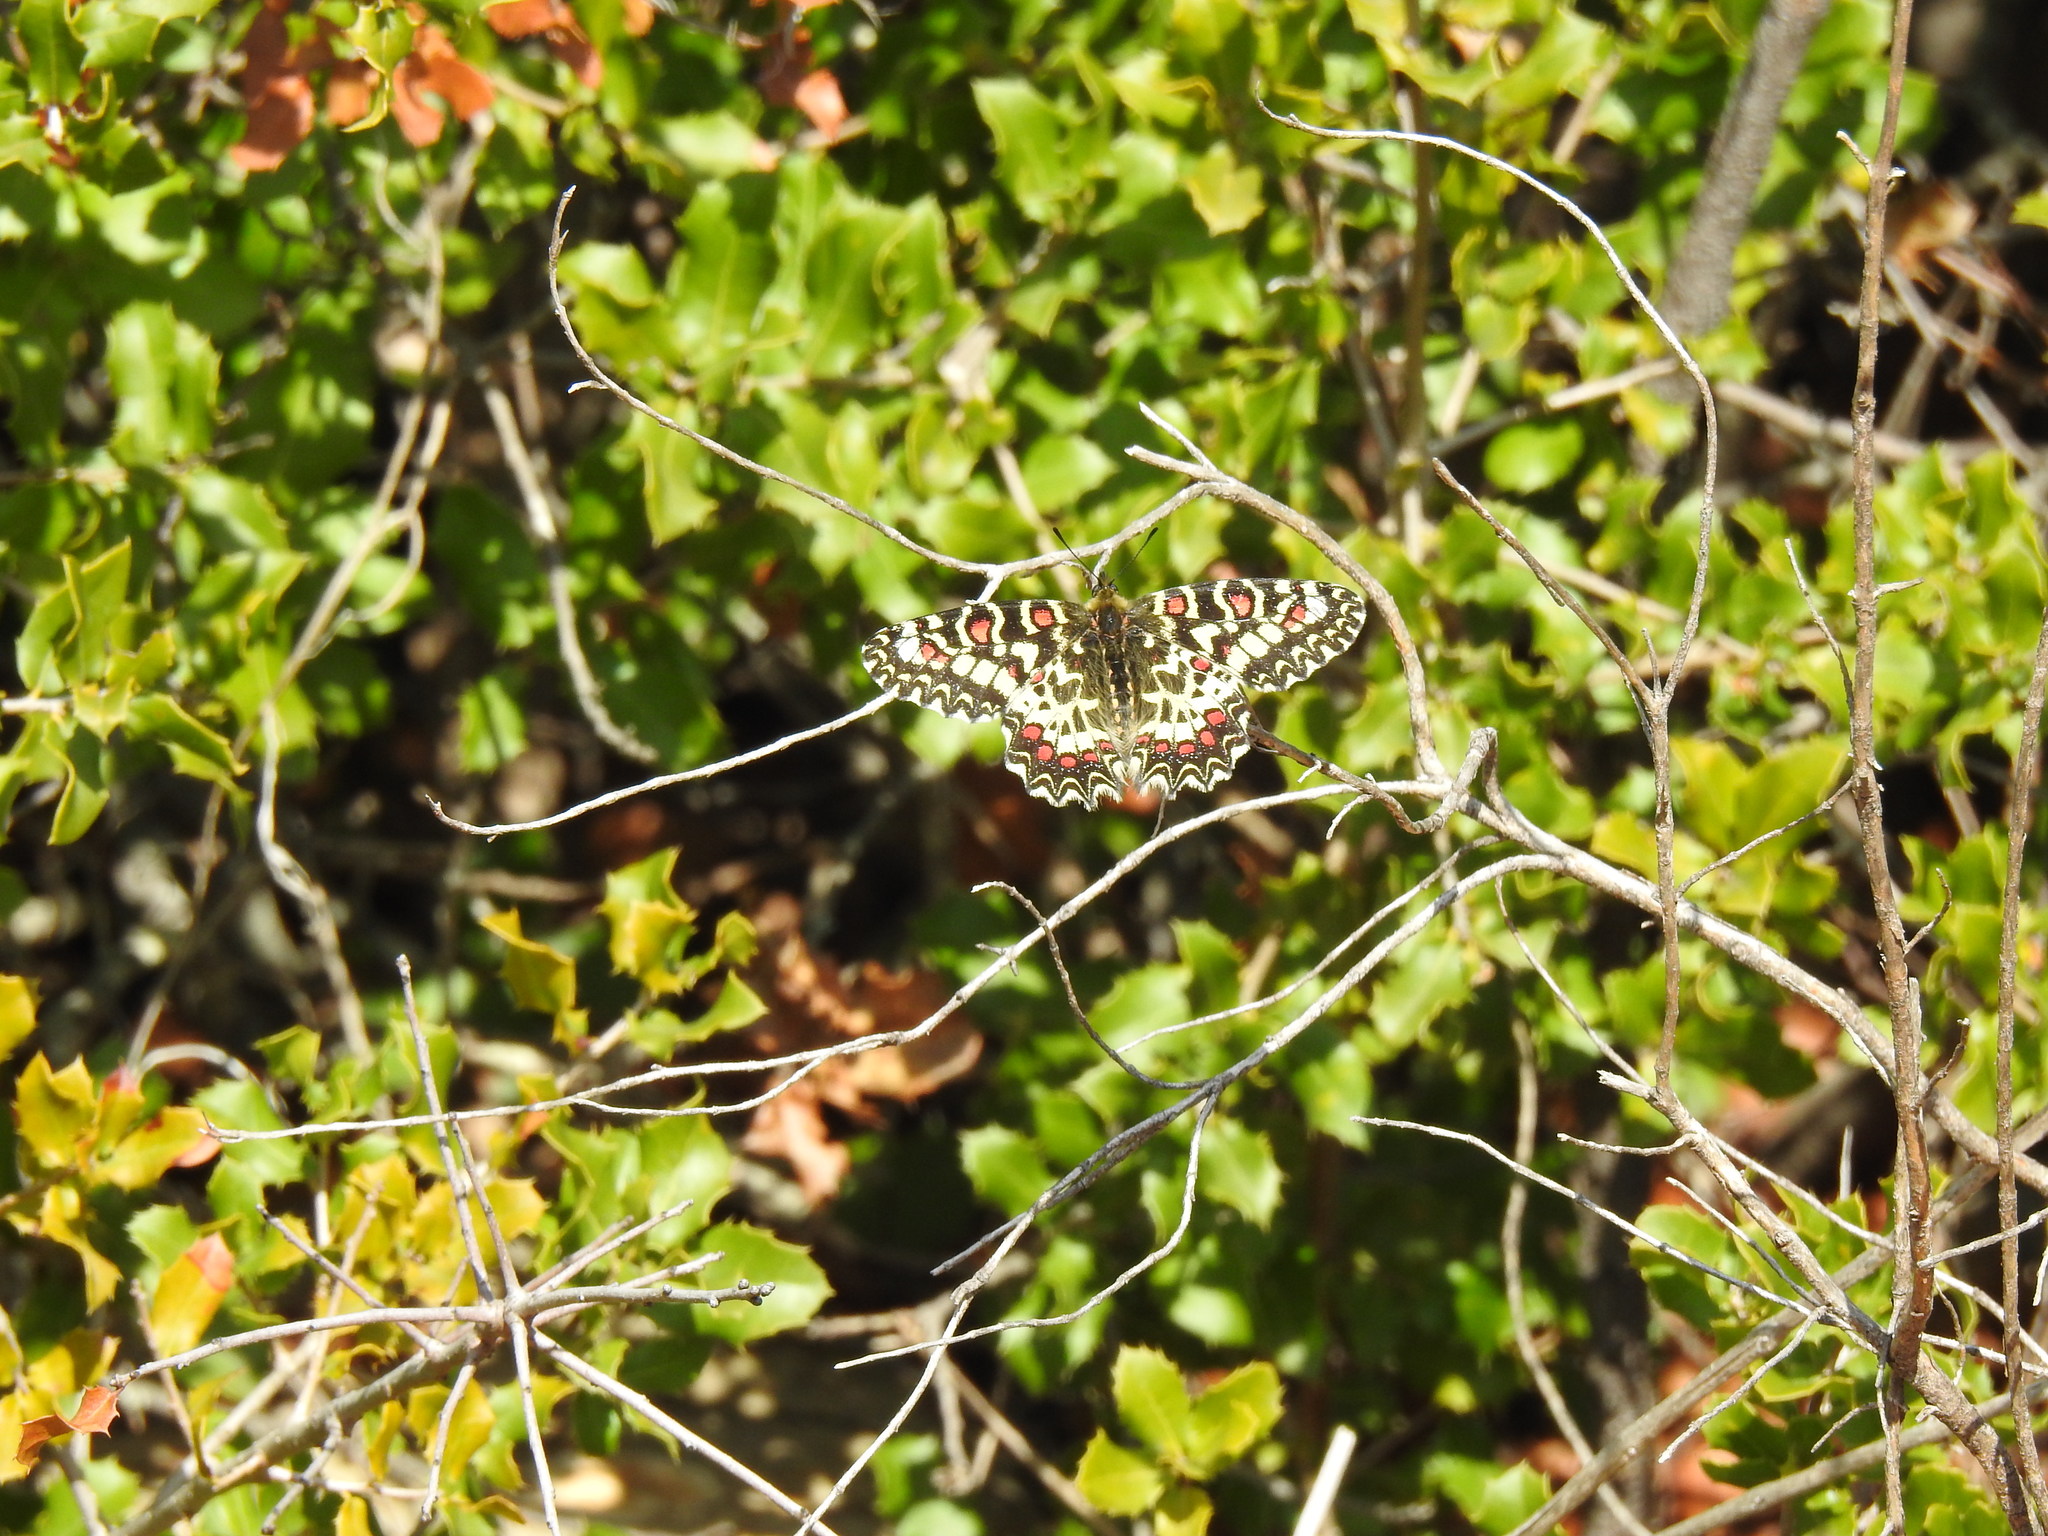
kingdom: Animalia
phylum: Arthropoda
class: Insecta
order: Lepidoptera
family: Papilionidae
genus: Zerynthia
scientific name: Zerynthia rumina
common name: Spanish festoon
